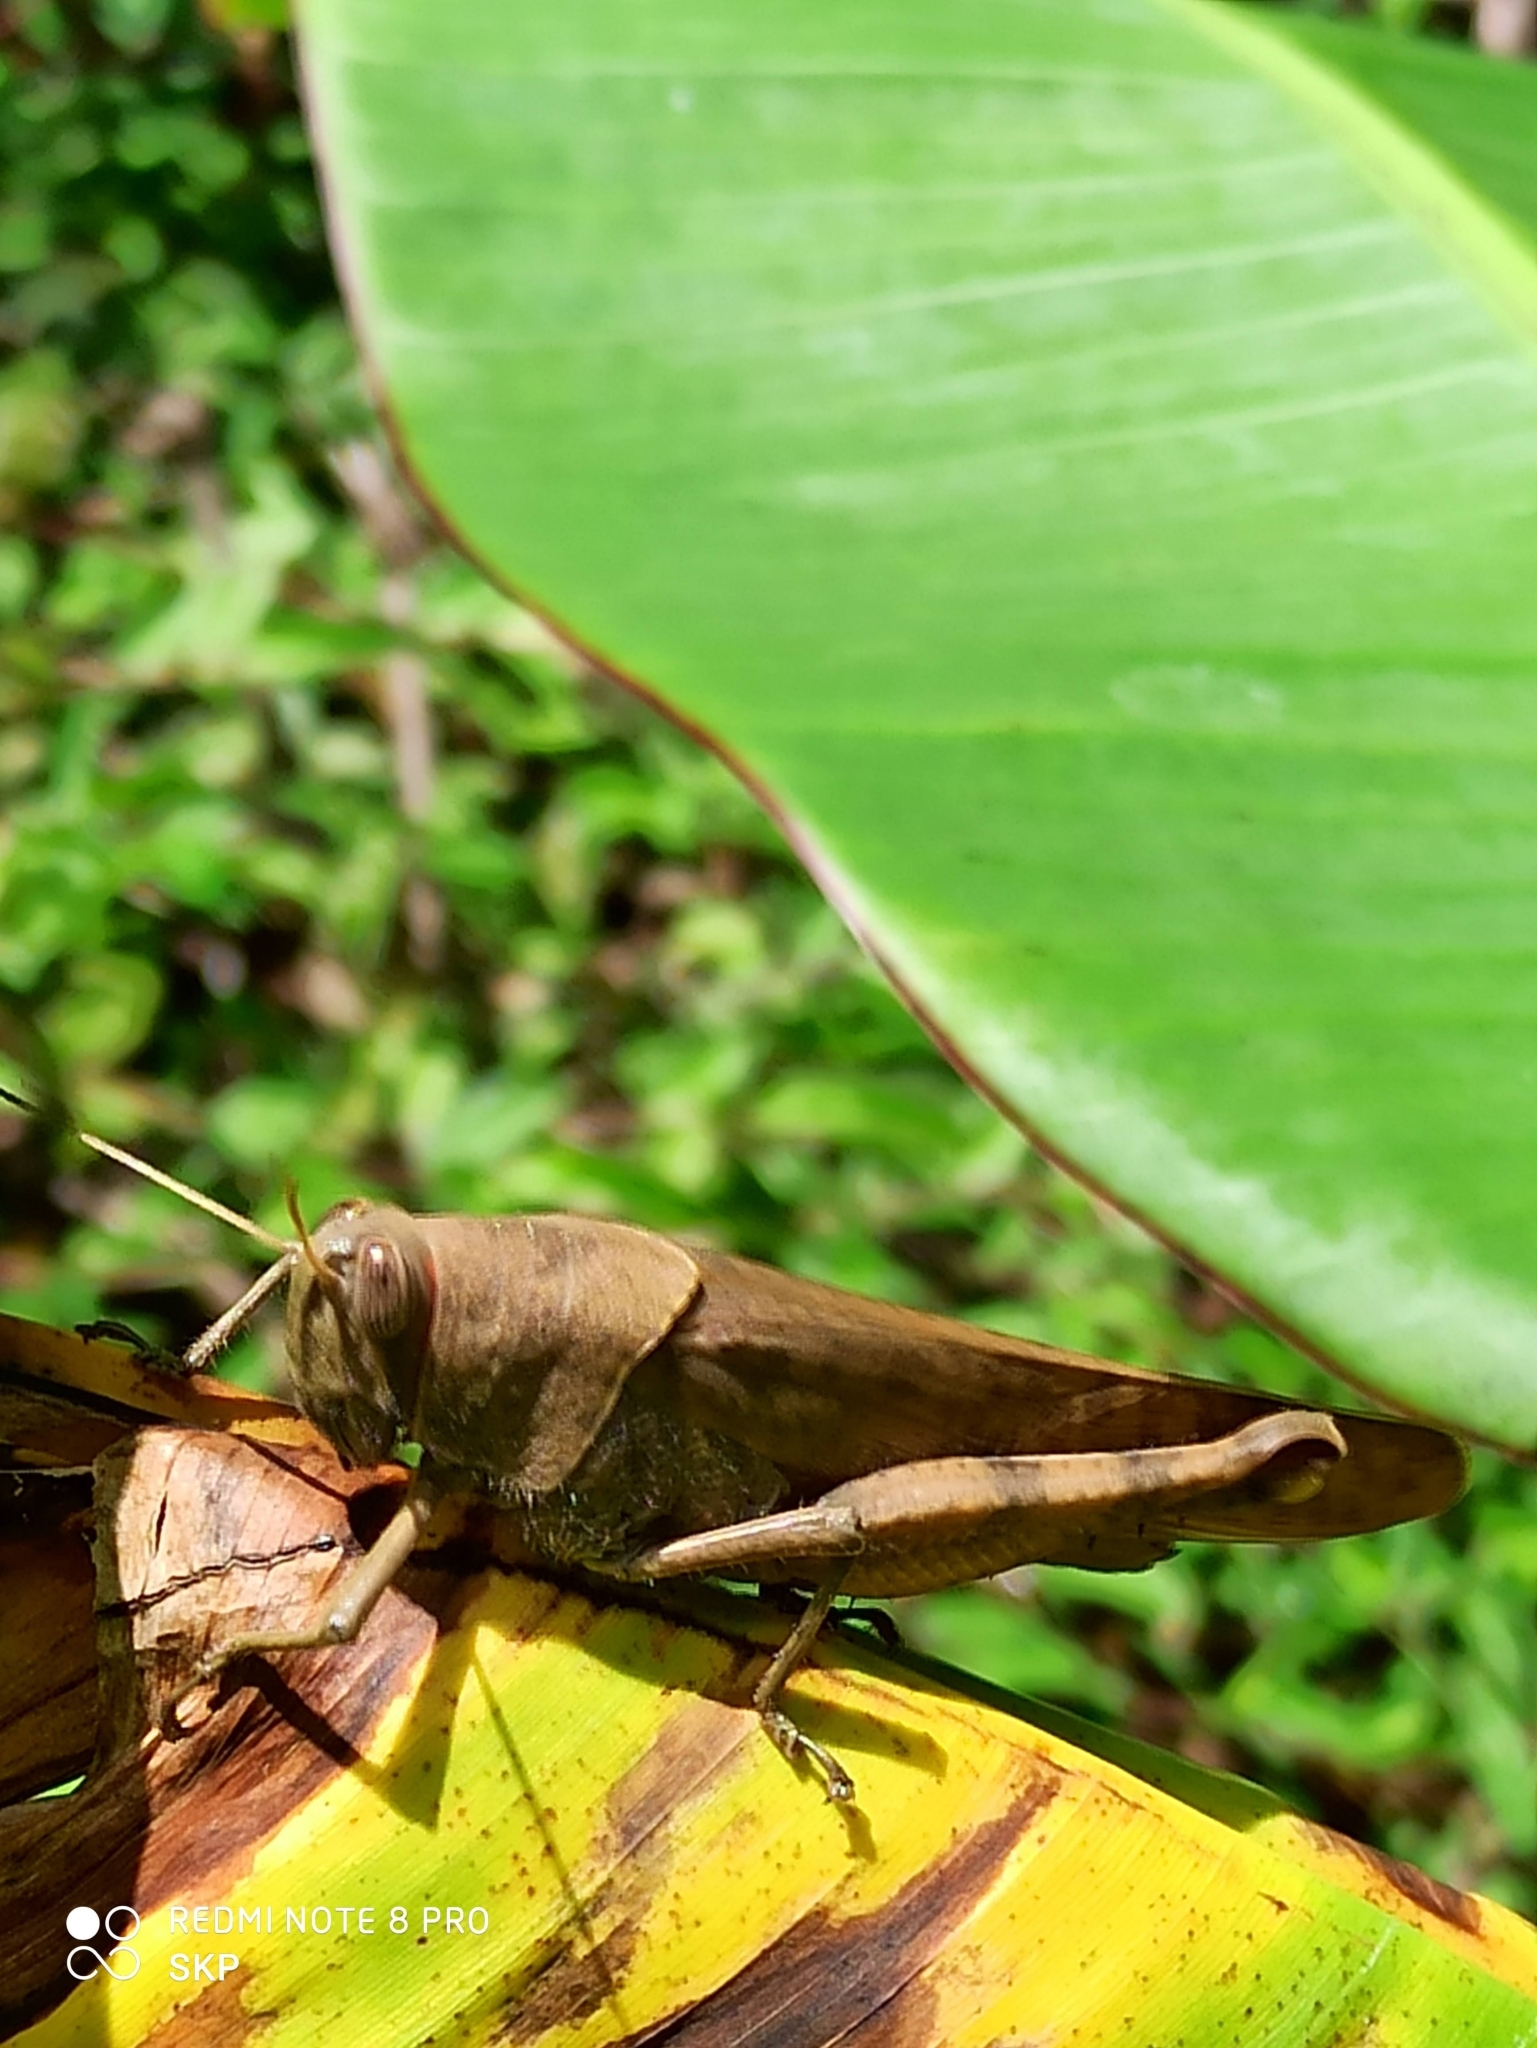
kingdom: Animalia
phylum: Arthropoda
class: Insecta
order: Orthoptera
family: Acrididae
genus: Pachyacris
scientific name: Pachyacris vinosa
